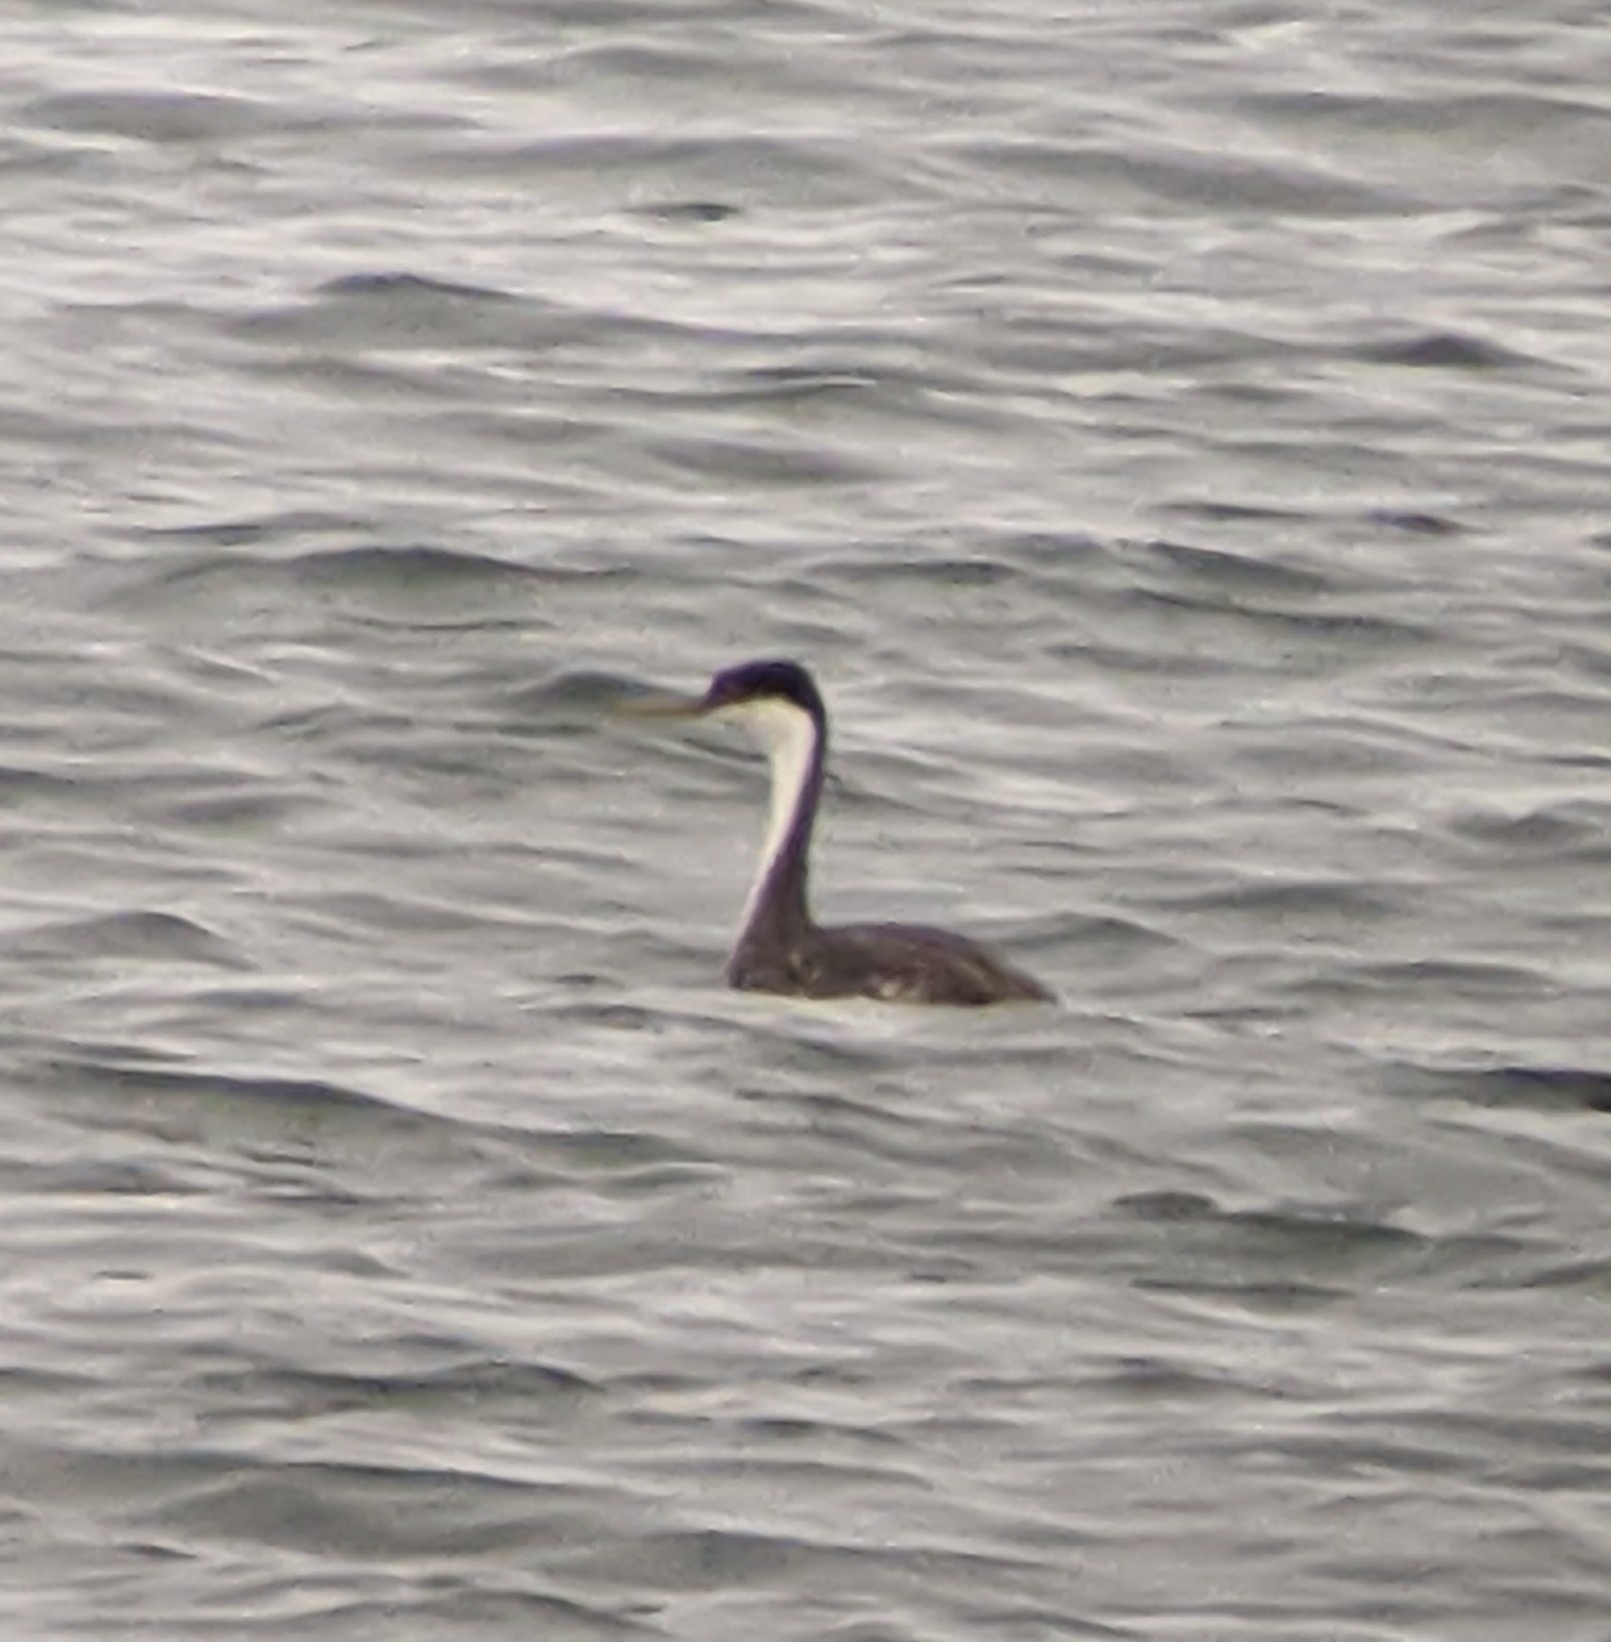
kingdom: Animalia
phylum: Chordata
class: Aves
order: Podicipediformes
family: Podicipedidae
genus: Aechmophorus
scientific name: Aechmophorus occidentalis
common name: Western grebe
